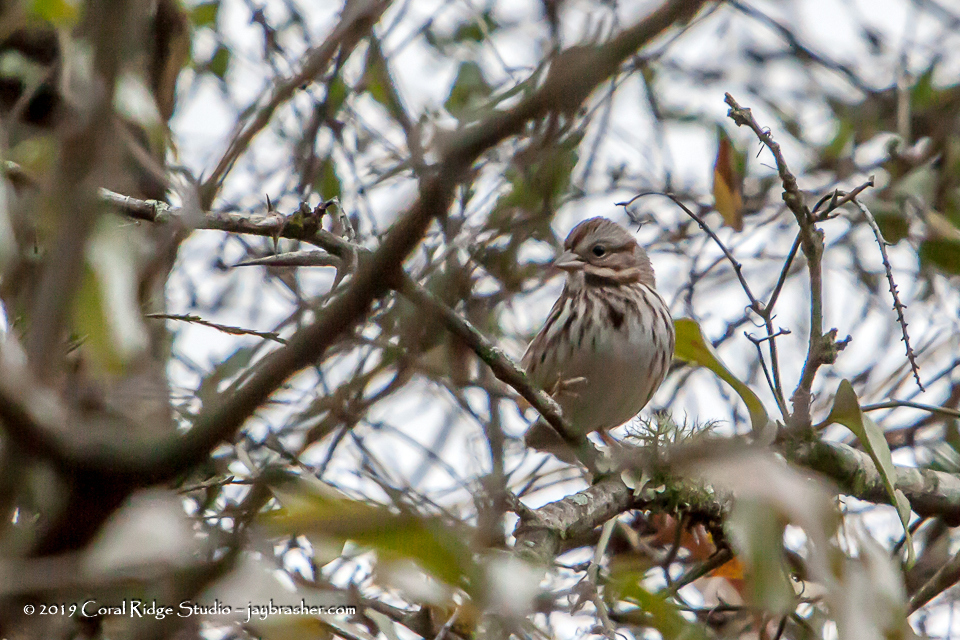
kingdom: Animalia
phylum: Chordata
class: Aves
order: Passeriformes
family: Passerellidae
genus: Melospiza
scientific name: Melospiza melodia
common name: Song sparrow
